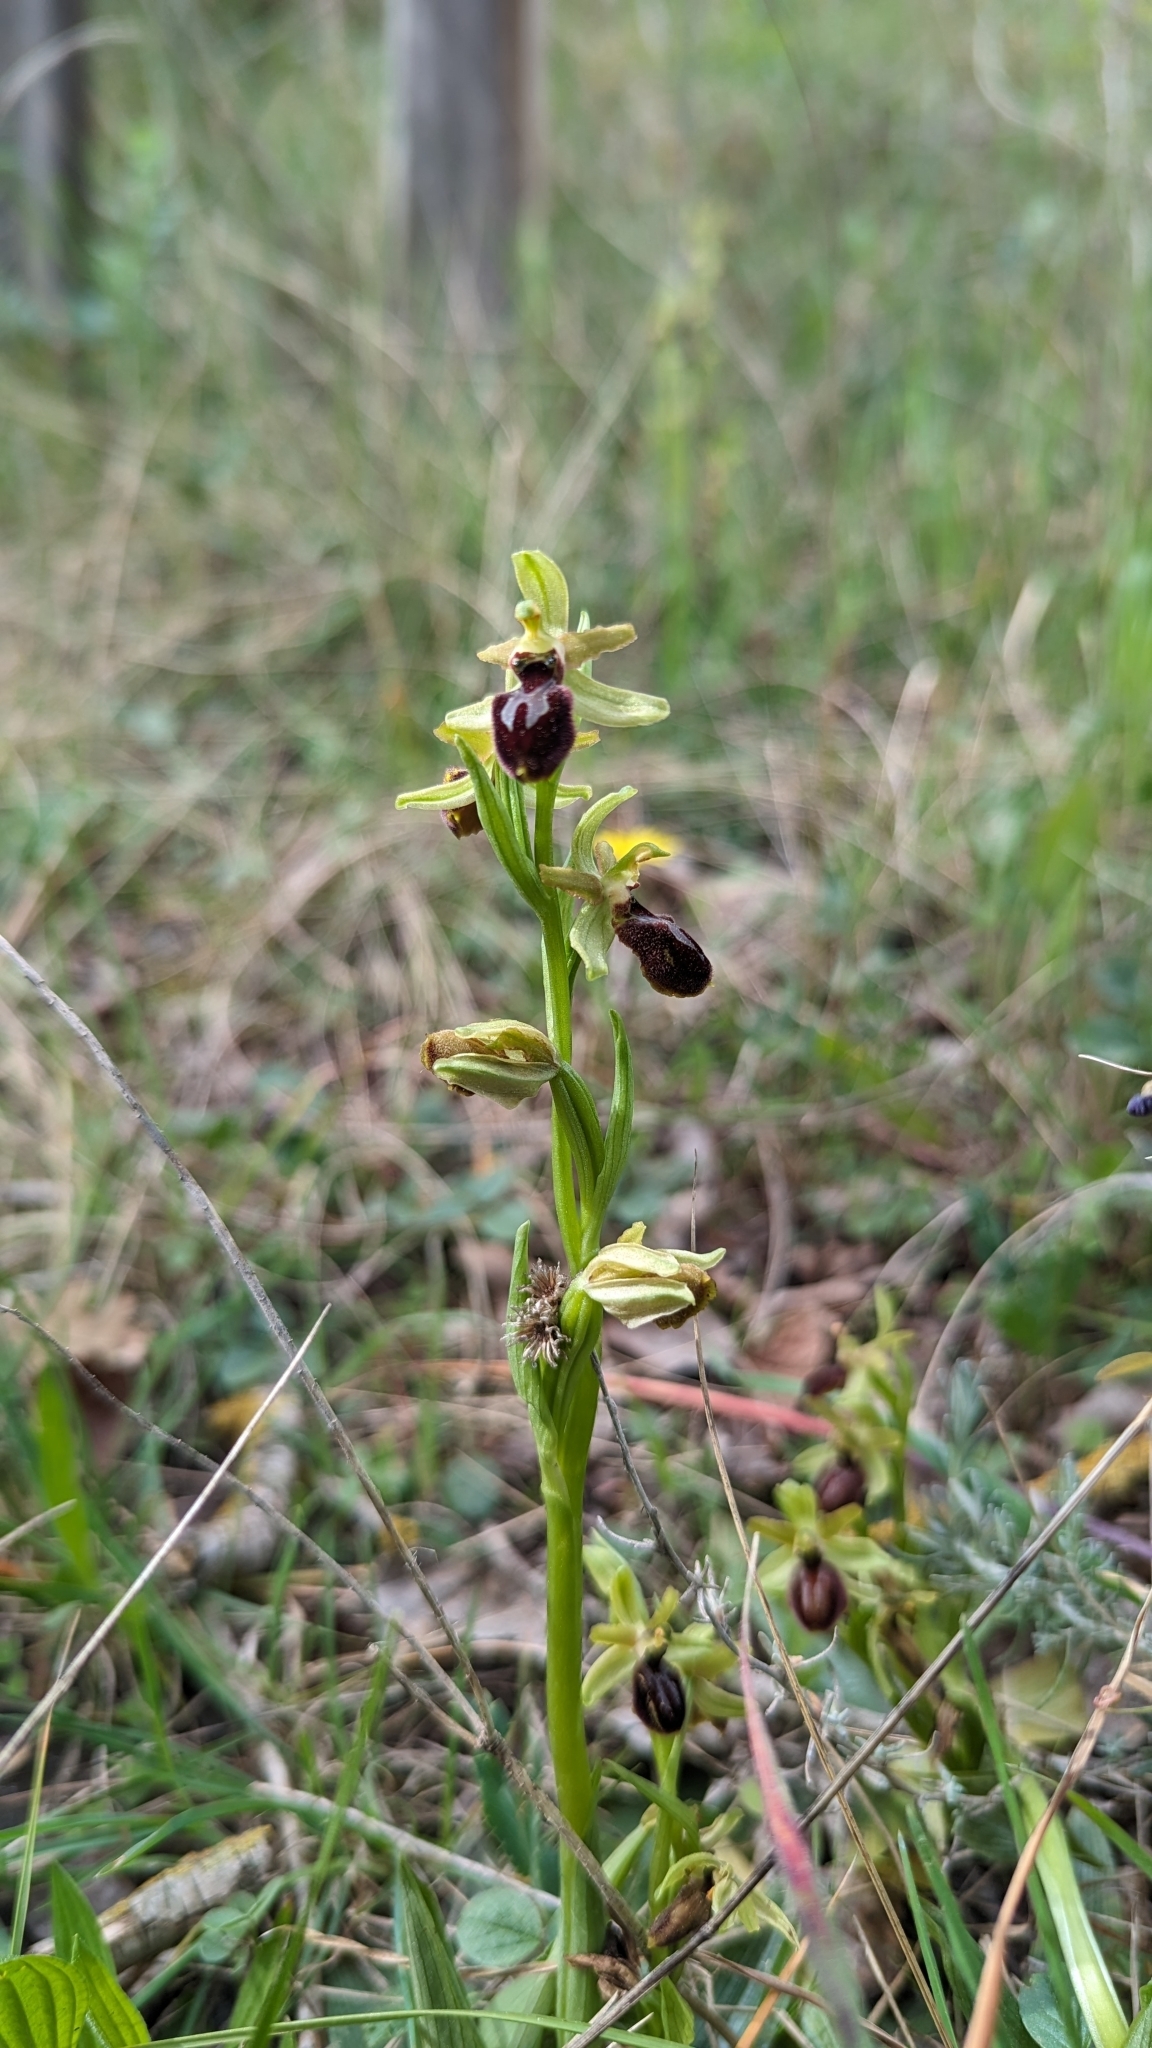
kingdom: Plantae
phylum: Tracheophyta
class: Liliopsida
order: Asparagales
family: Orchidaceae
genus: Ophrys
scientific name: Ophrys sphegodes
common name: Early spider-orchid
